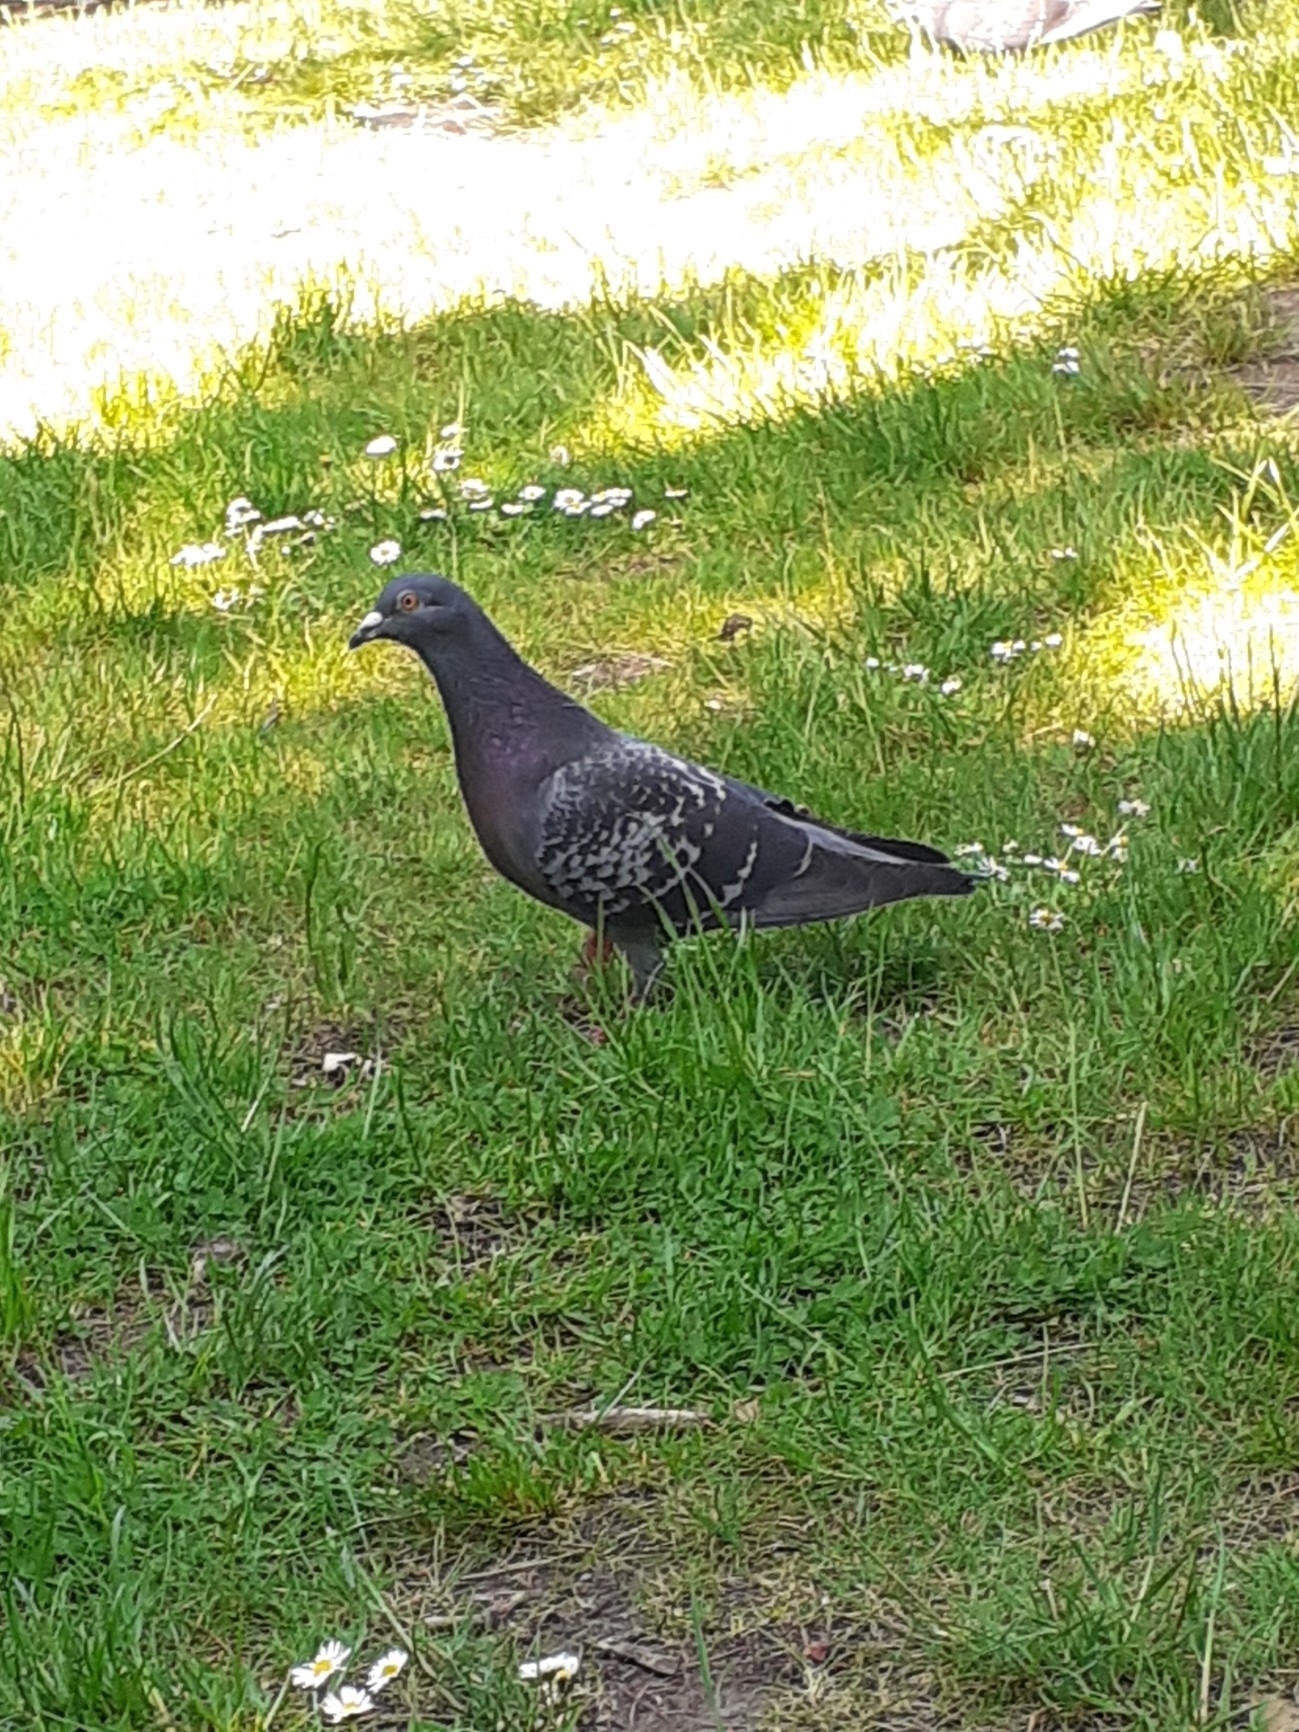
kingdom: Animalia
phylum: Chordata
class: Aves
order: Columbiformes
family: Columbidae
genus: Columba
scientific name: Columba livia
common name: Rock pigeon
